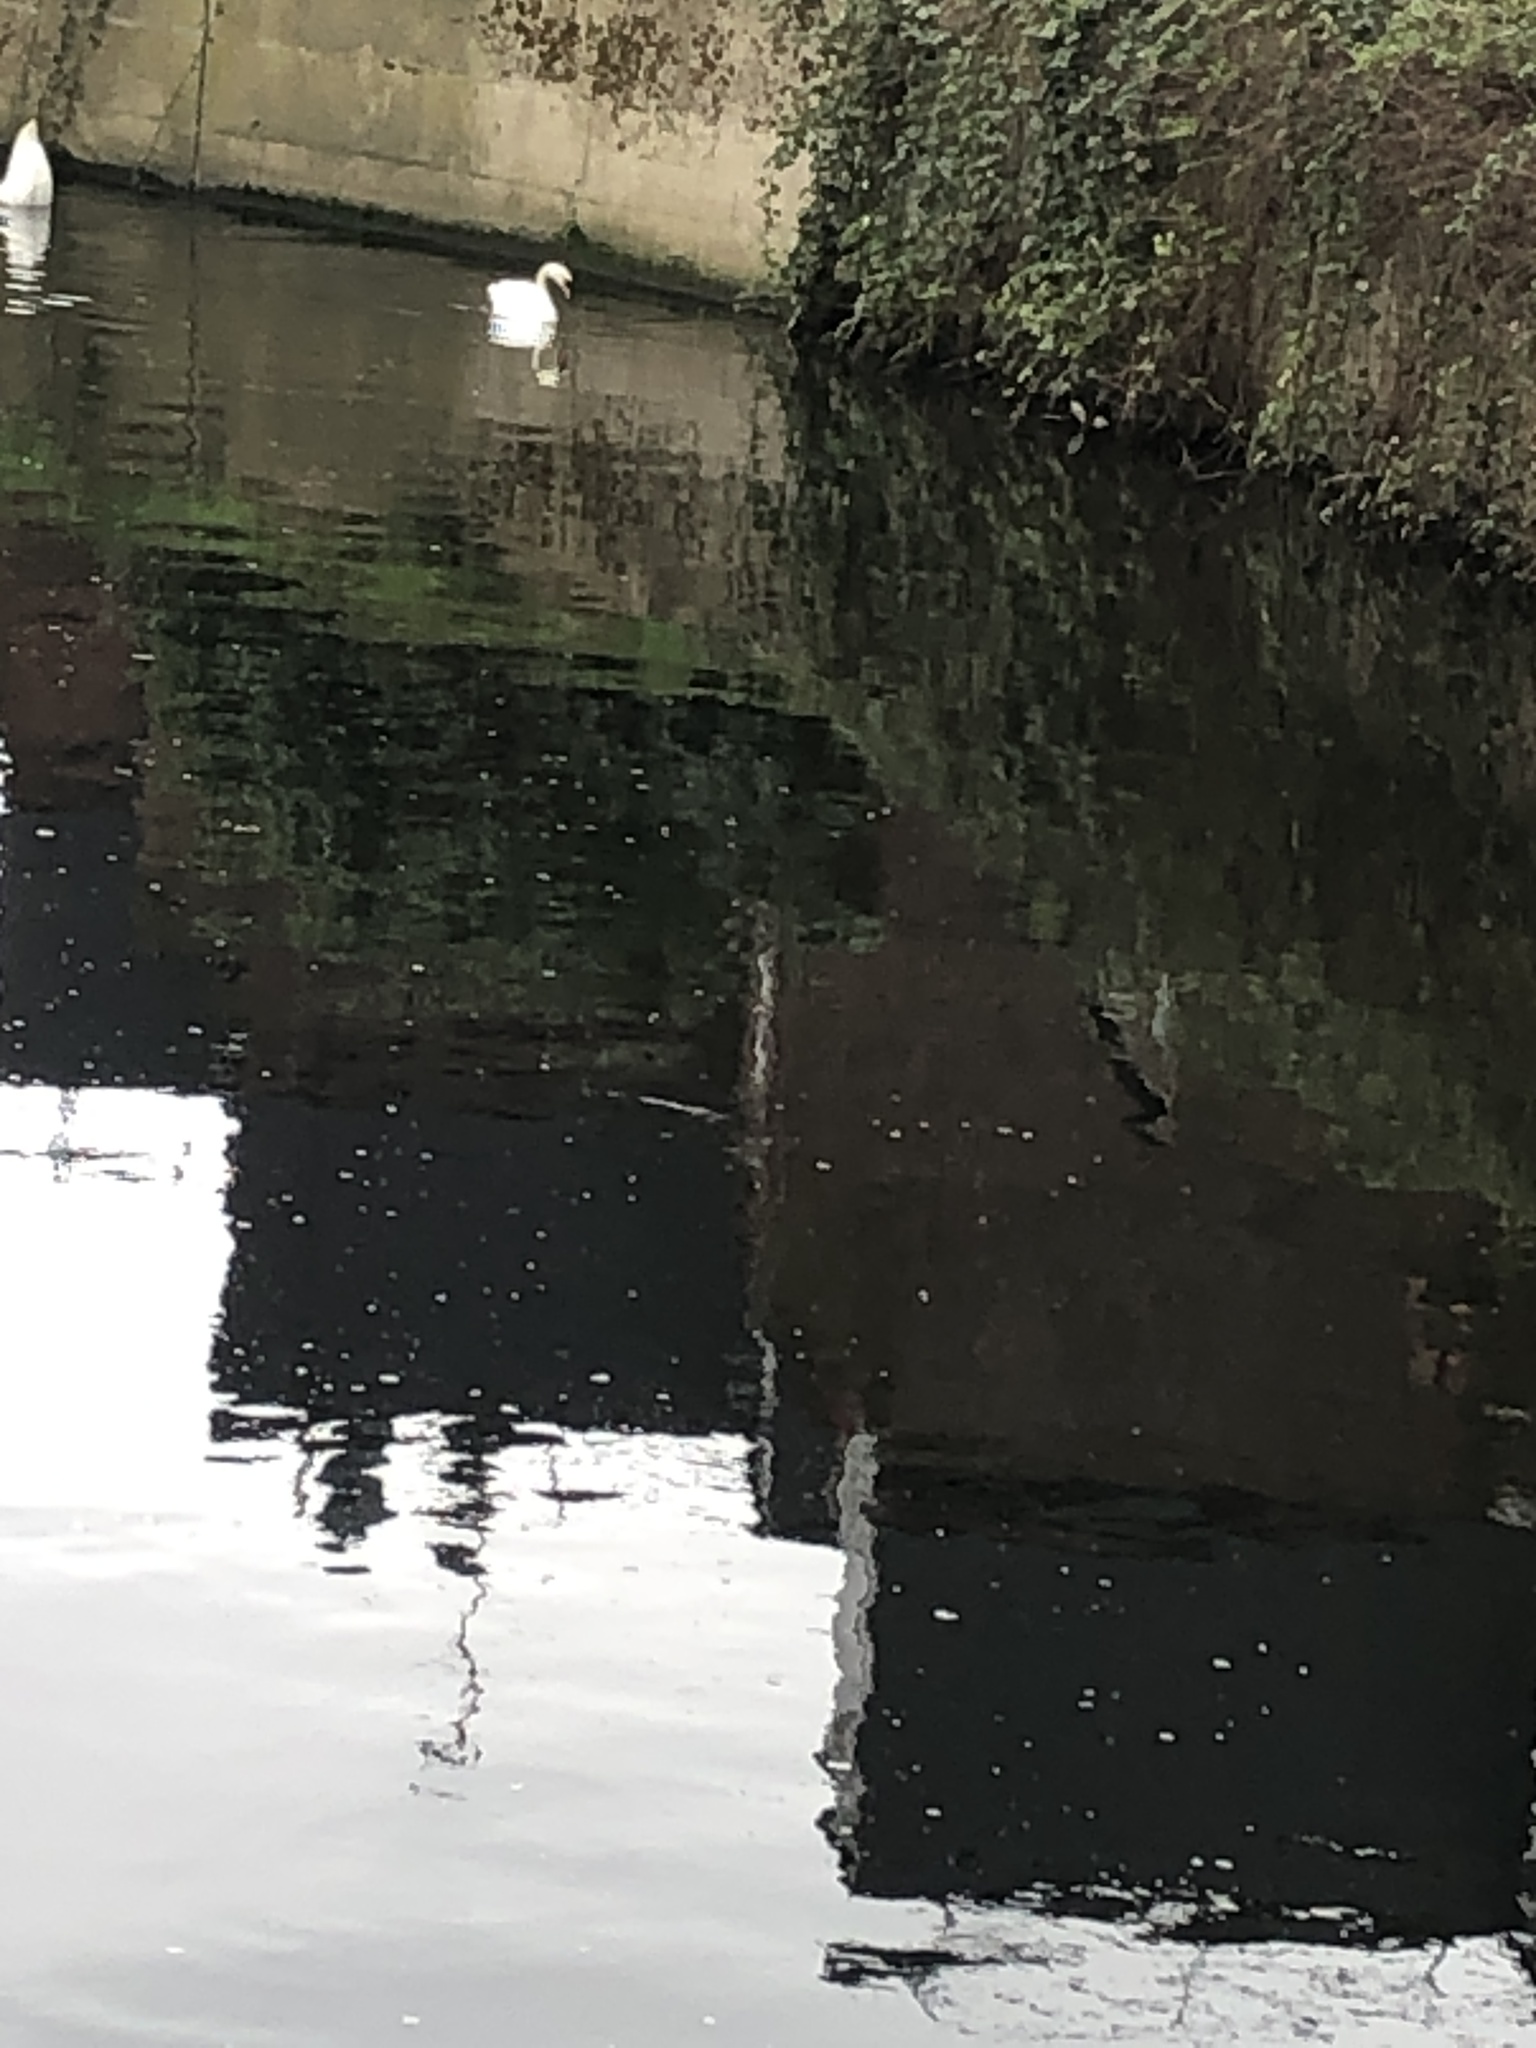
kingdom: Animalia
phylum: Chordata
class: Aves
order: Anseriformes
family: Anatidae
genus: Cygnus
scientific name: Cygnus olor
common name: Mute swan
